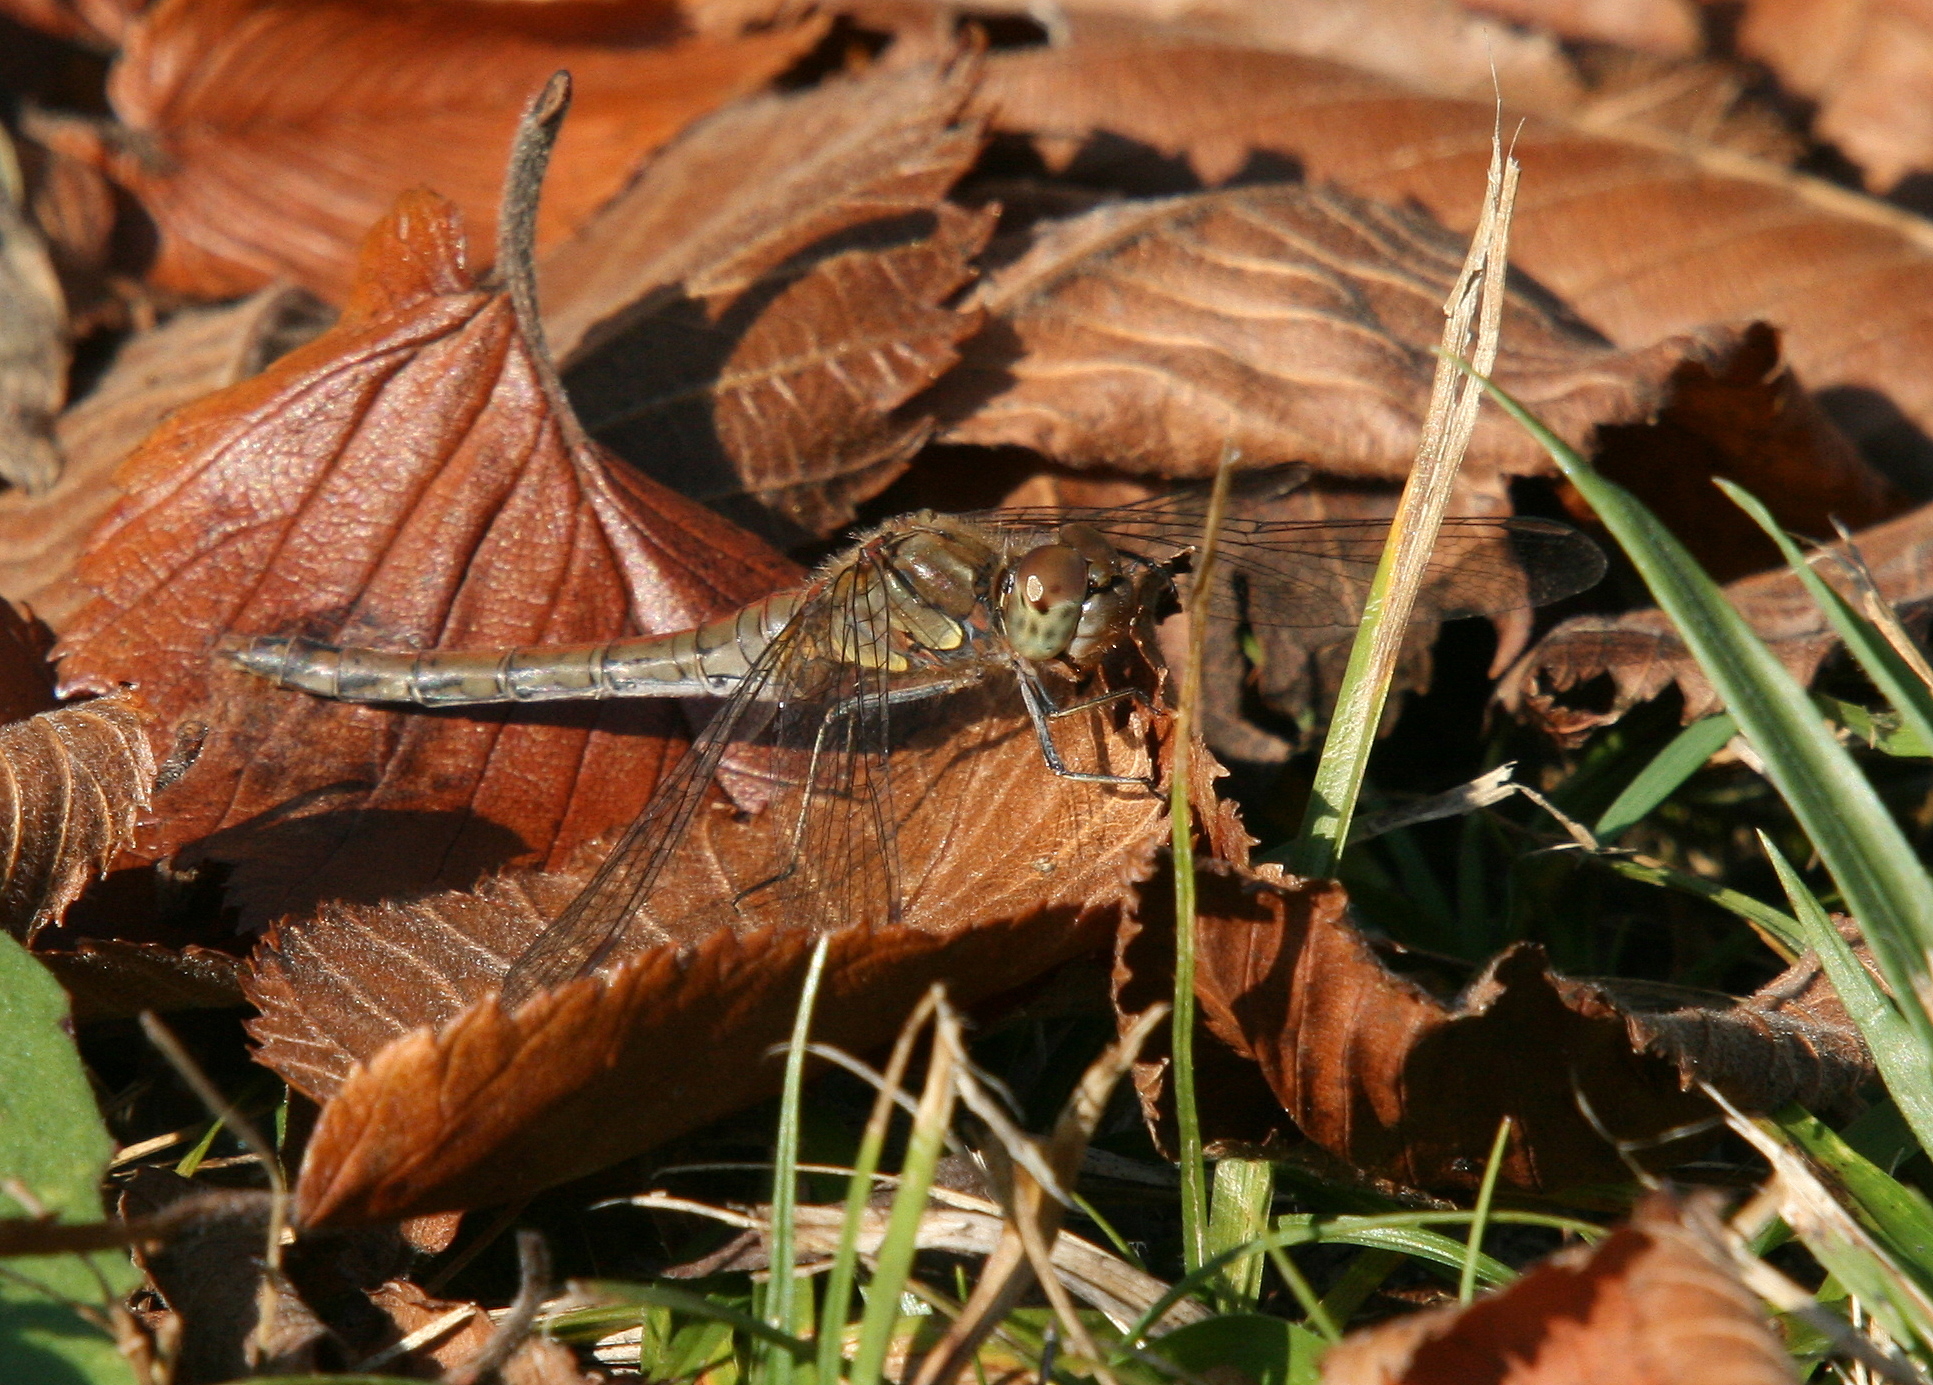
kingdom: Animalia
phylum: Arthropoda
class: Insecta
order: Odonata
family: Libellulidae
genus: Sympetrum
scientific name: Sympetrum striolatum
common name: Common darter
